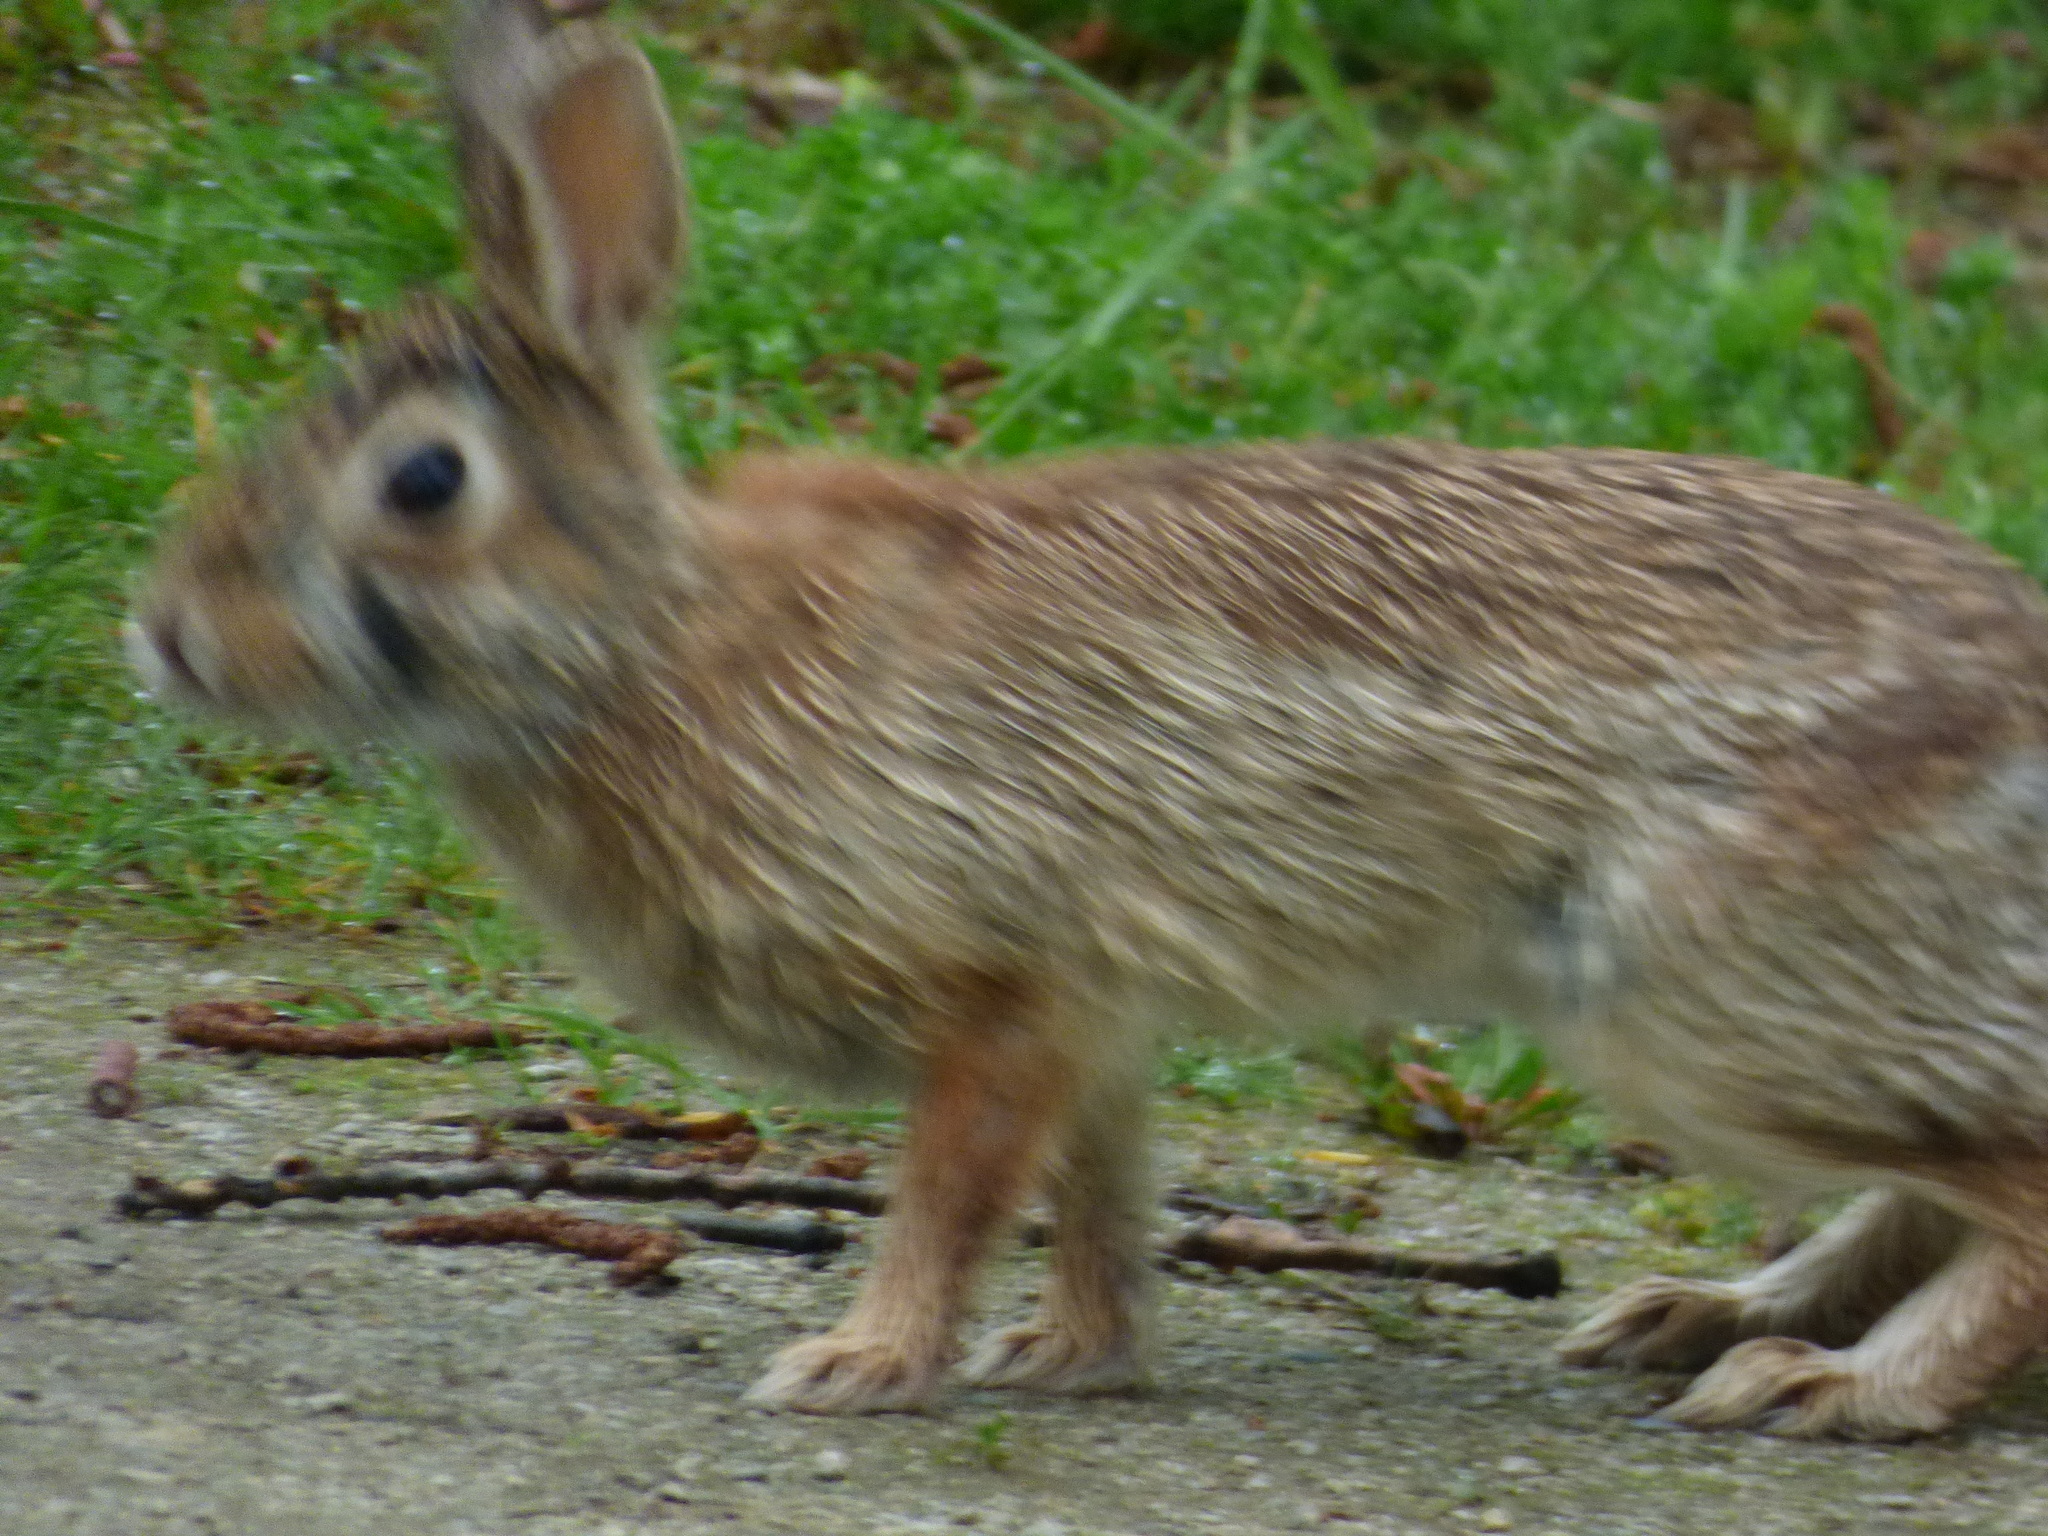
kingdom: Animalia
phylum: Chordata
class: Mammalia
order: Lagomorpha
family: Leporidae
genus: Sylvilagus
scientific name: Sylvilagus floridanus
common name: Eastern cottontail
